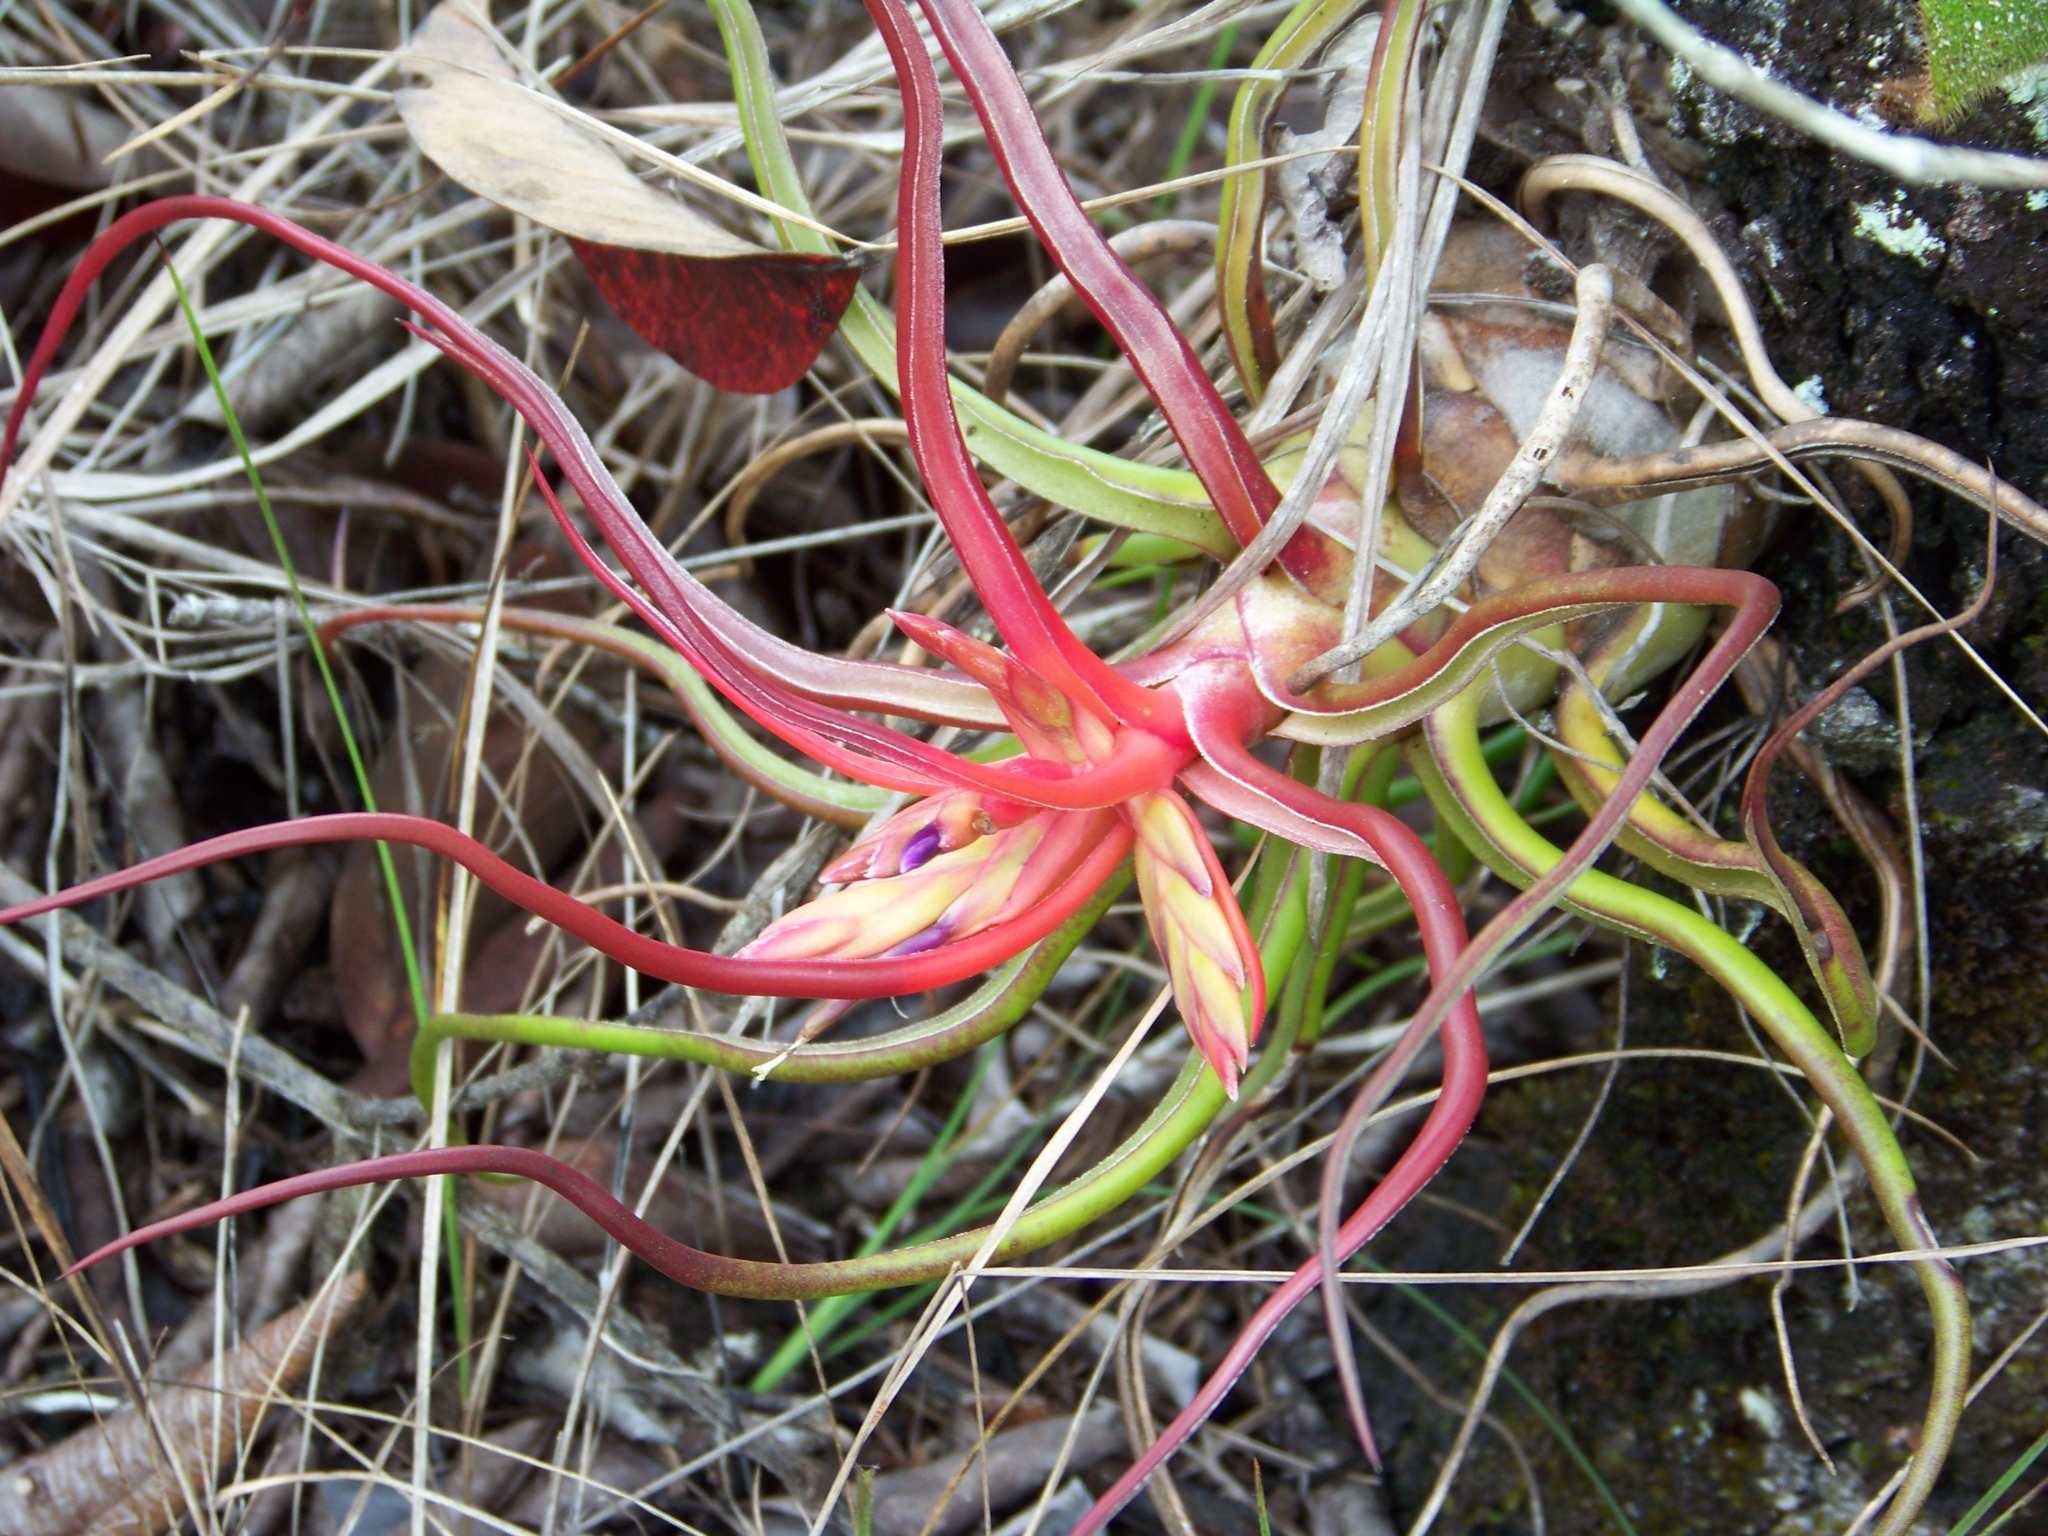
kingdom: Plantae
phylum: Tracheophyta
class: Liliopsida
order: Poales
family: Bromeliaceae
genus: Tillandsia
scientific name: Tillandsia bulbosa
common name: Bulbous airplant
